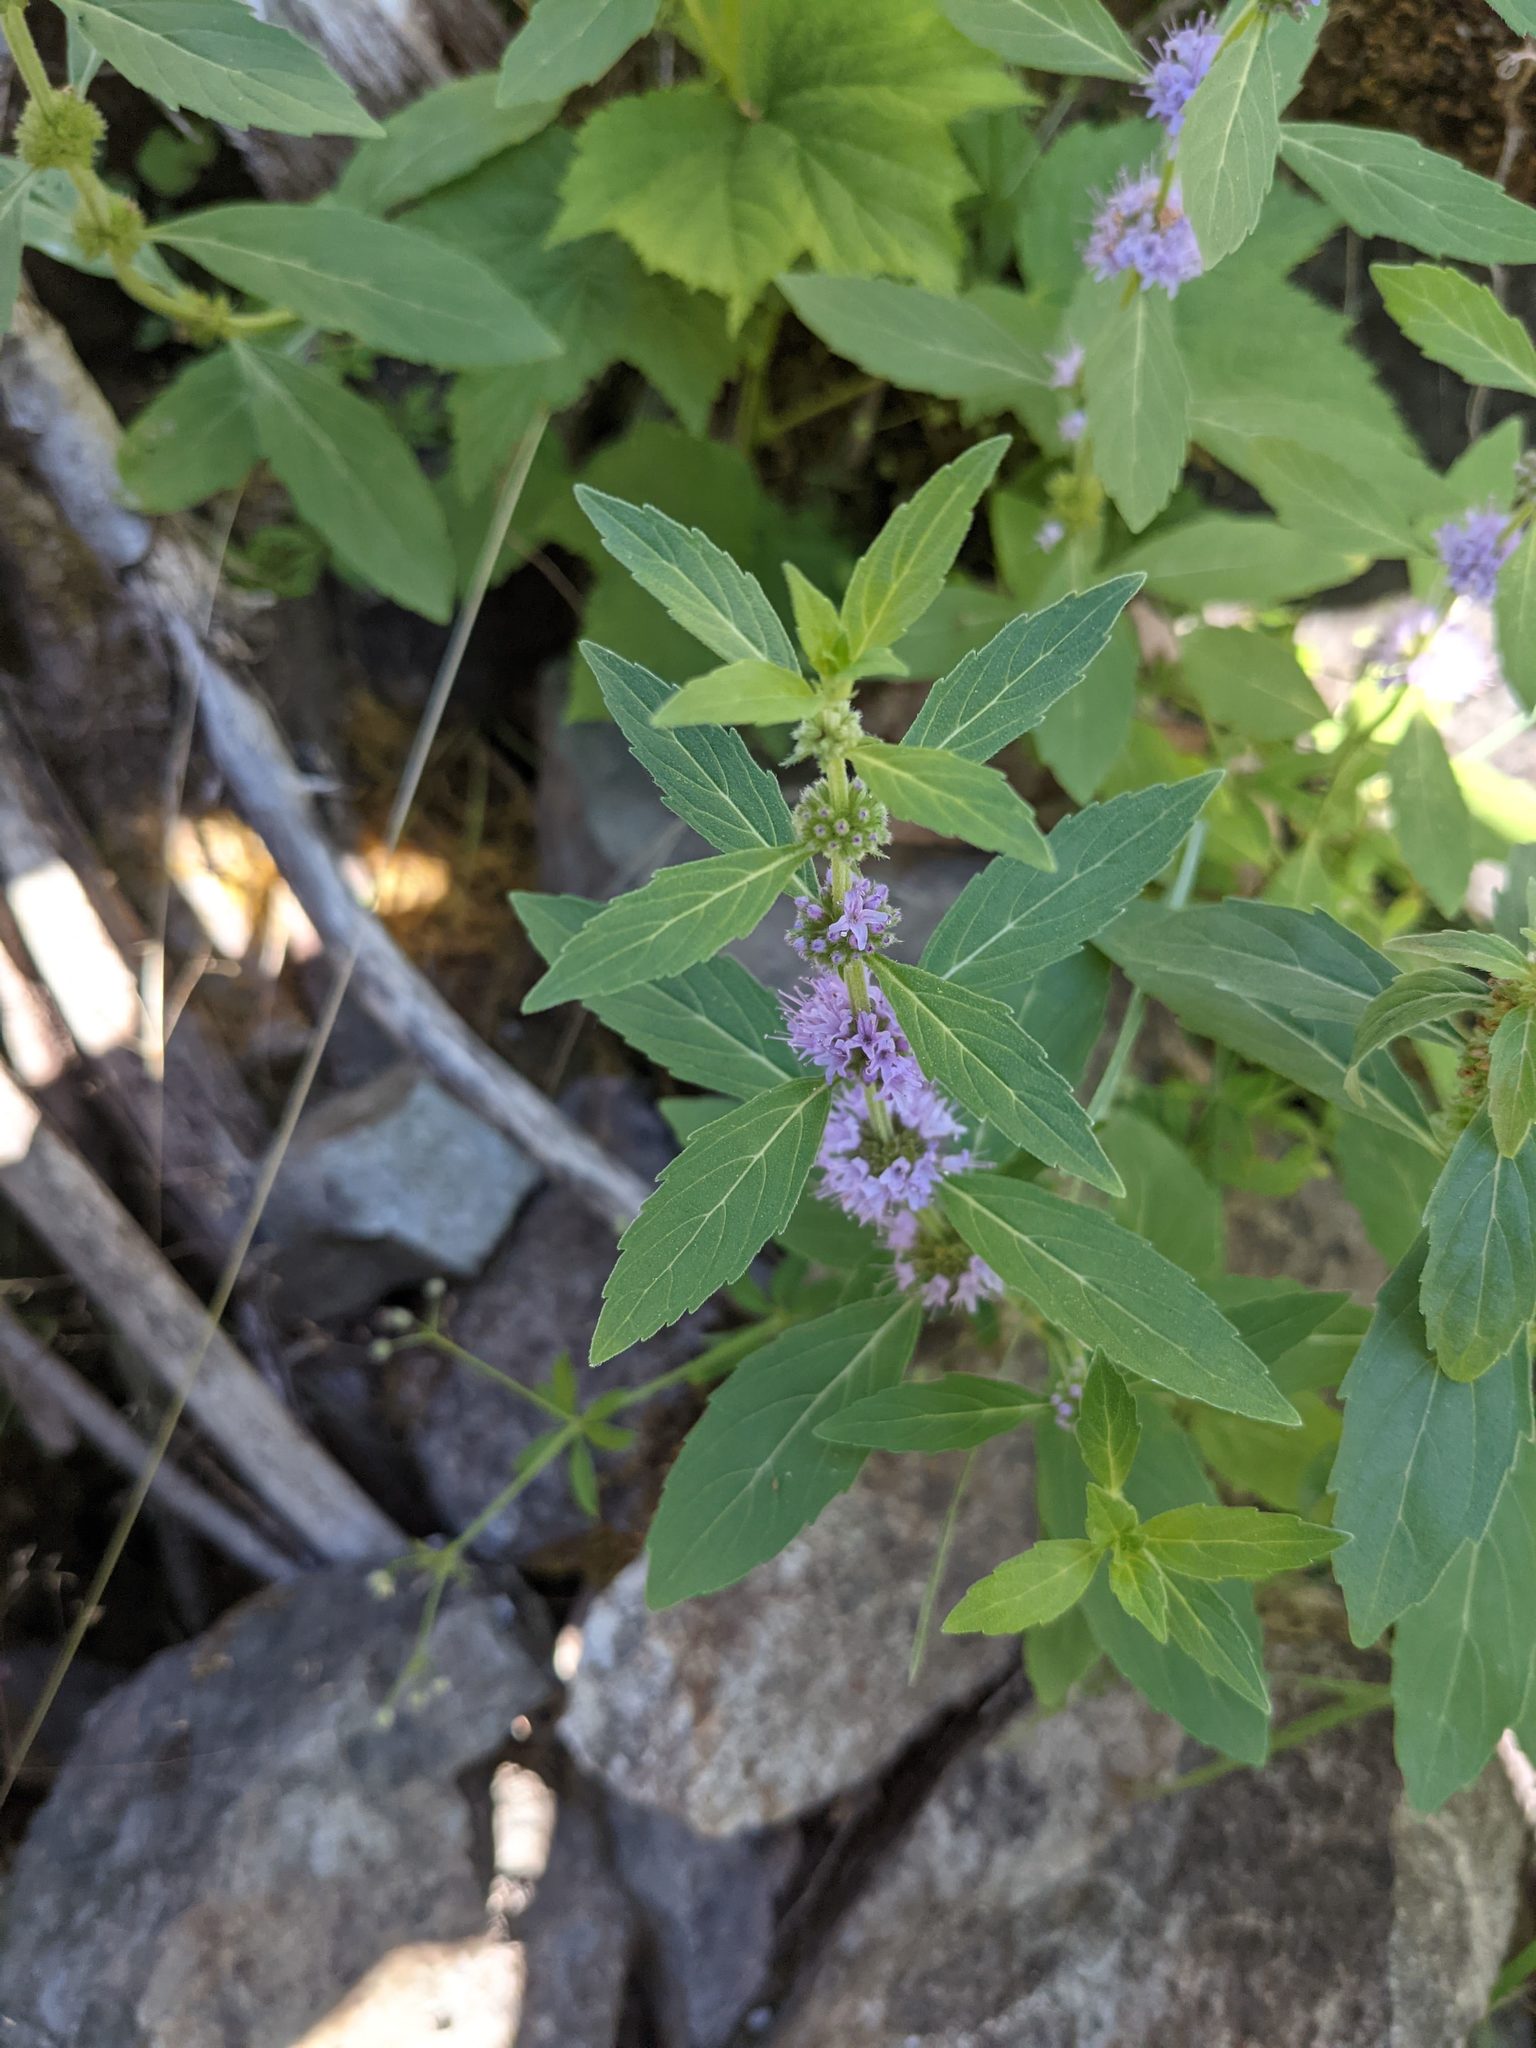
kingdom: Plantae
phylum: Tracheophyta
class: Magnoliopsida
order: Lamiales
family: Lamiaceae
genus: Mentha
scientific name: Mentha canadensis
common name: American corn mint
